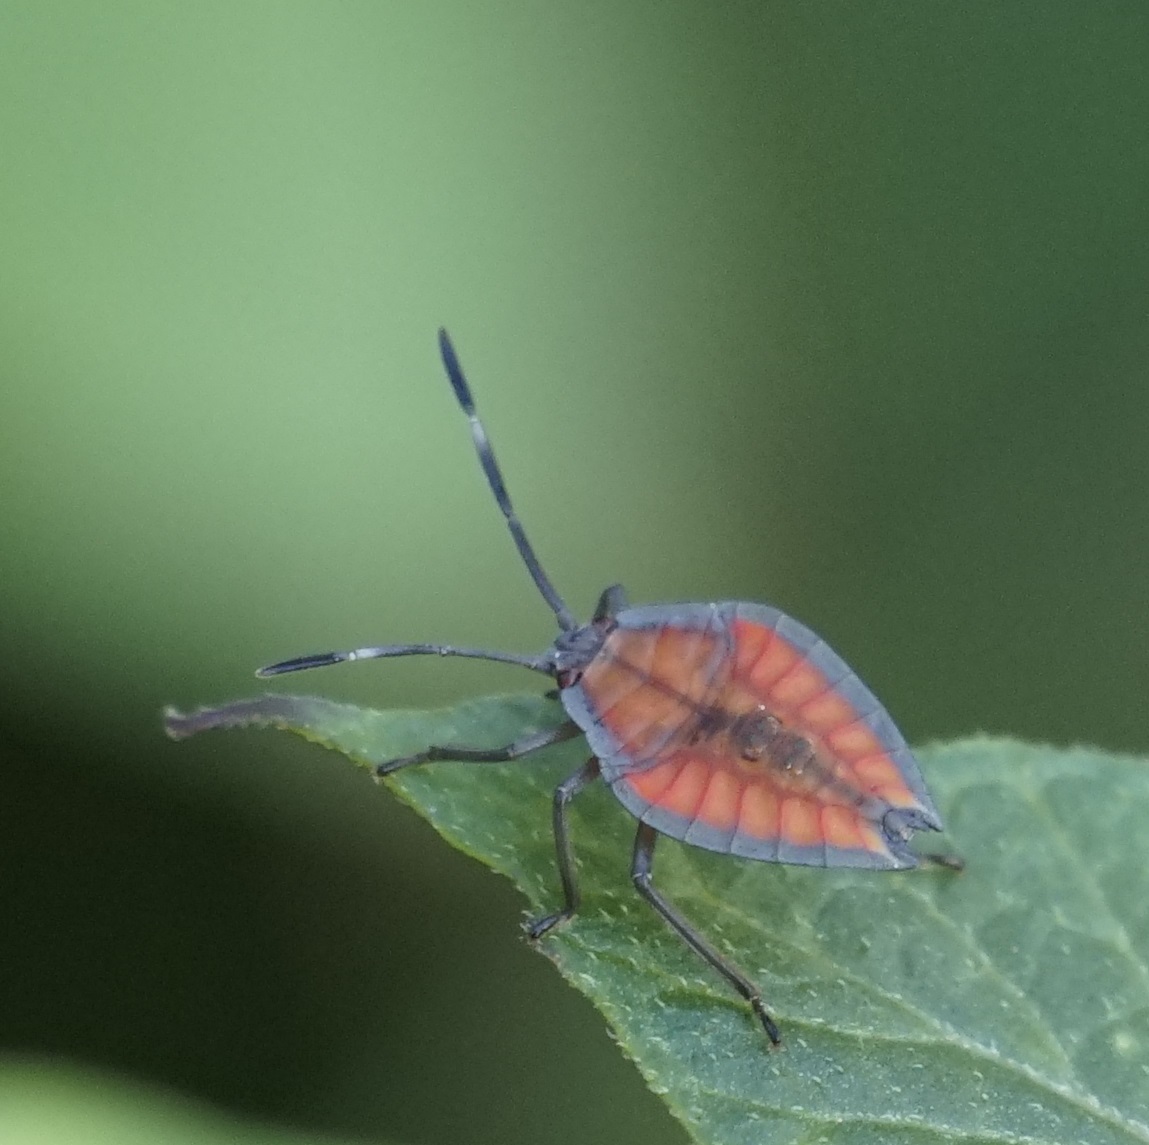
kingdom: Animalia
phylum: Arthropoda
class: Insecta
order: Hemiptera
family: Tessaratomidae
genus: Lyramorpha
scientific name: Lyramorpha rosea
